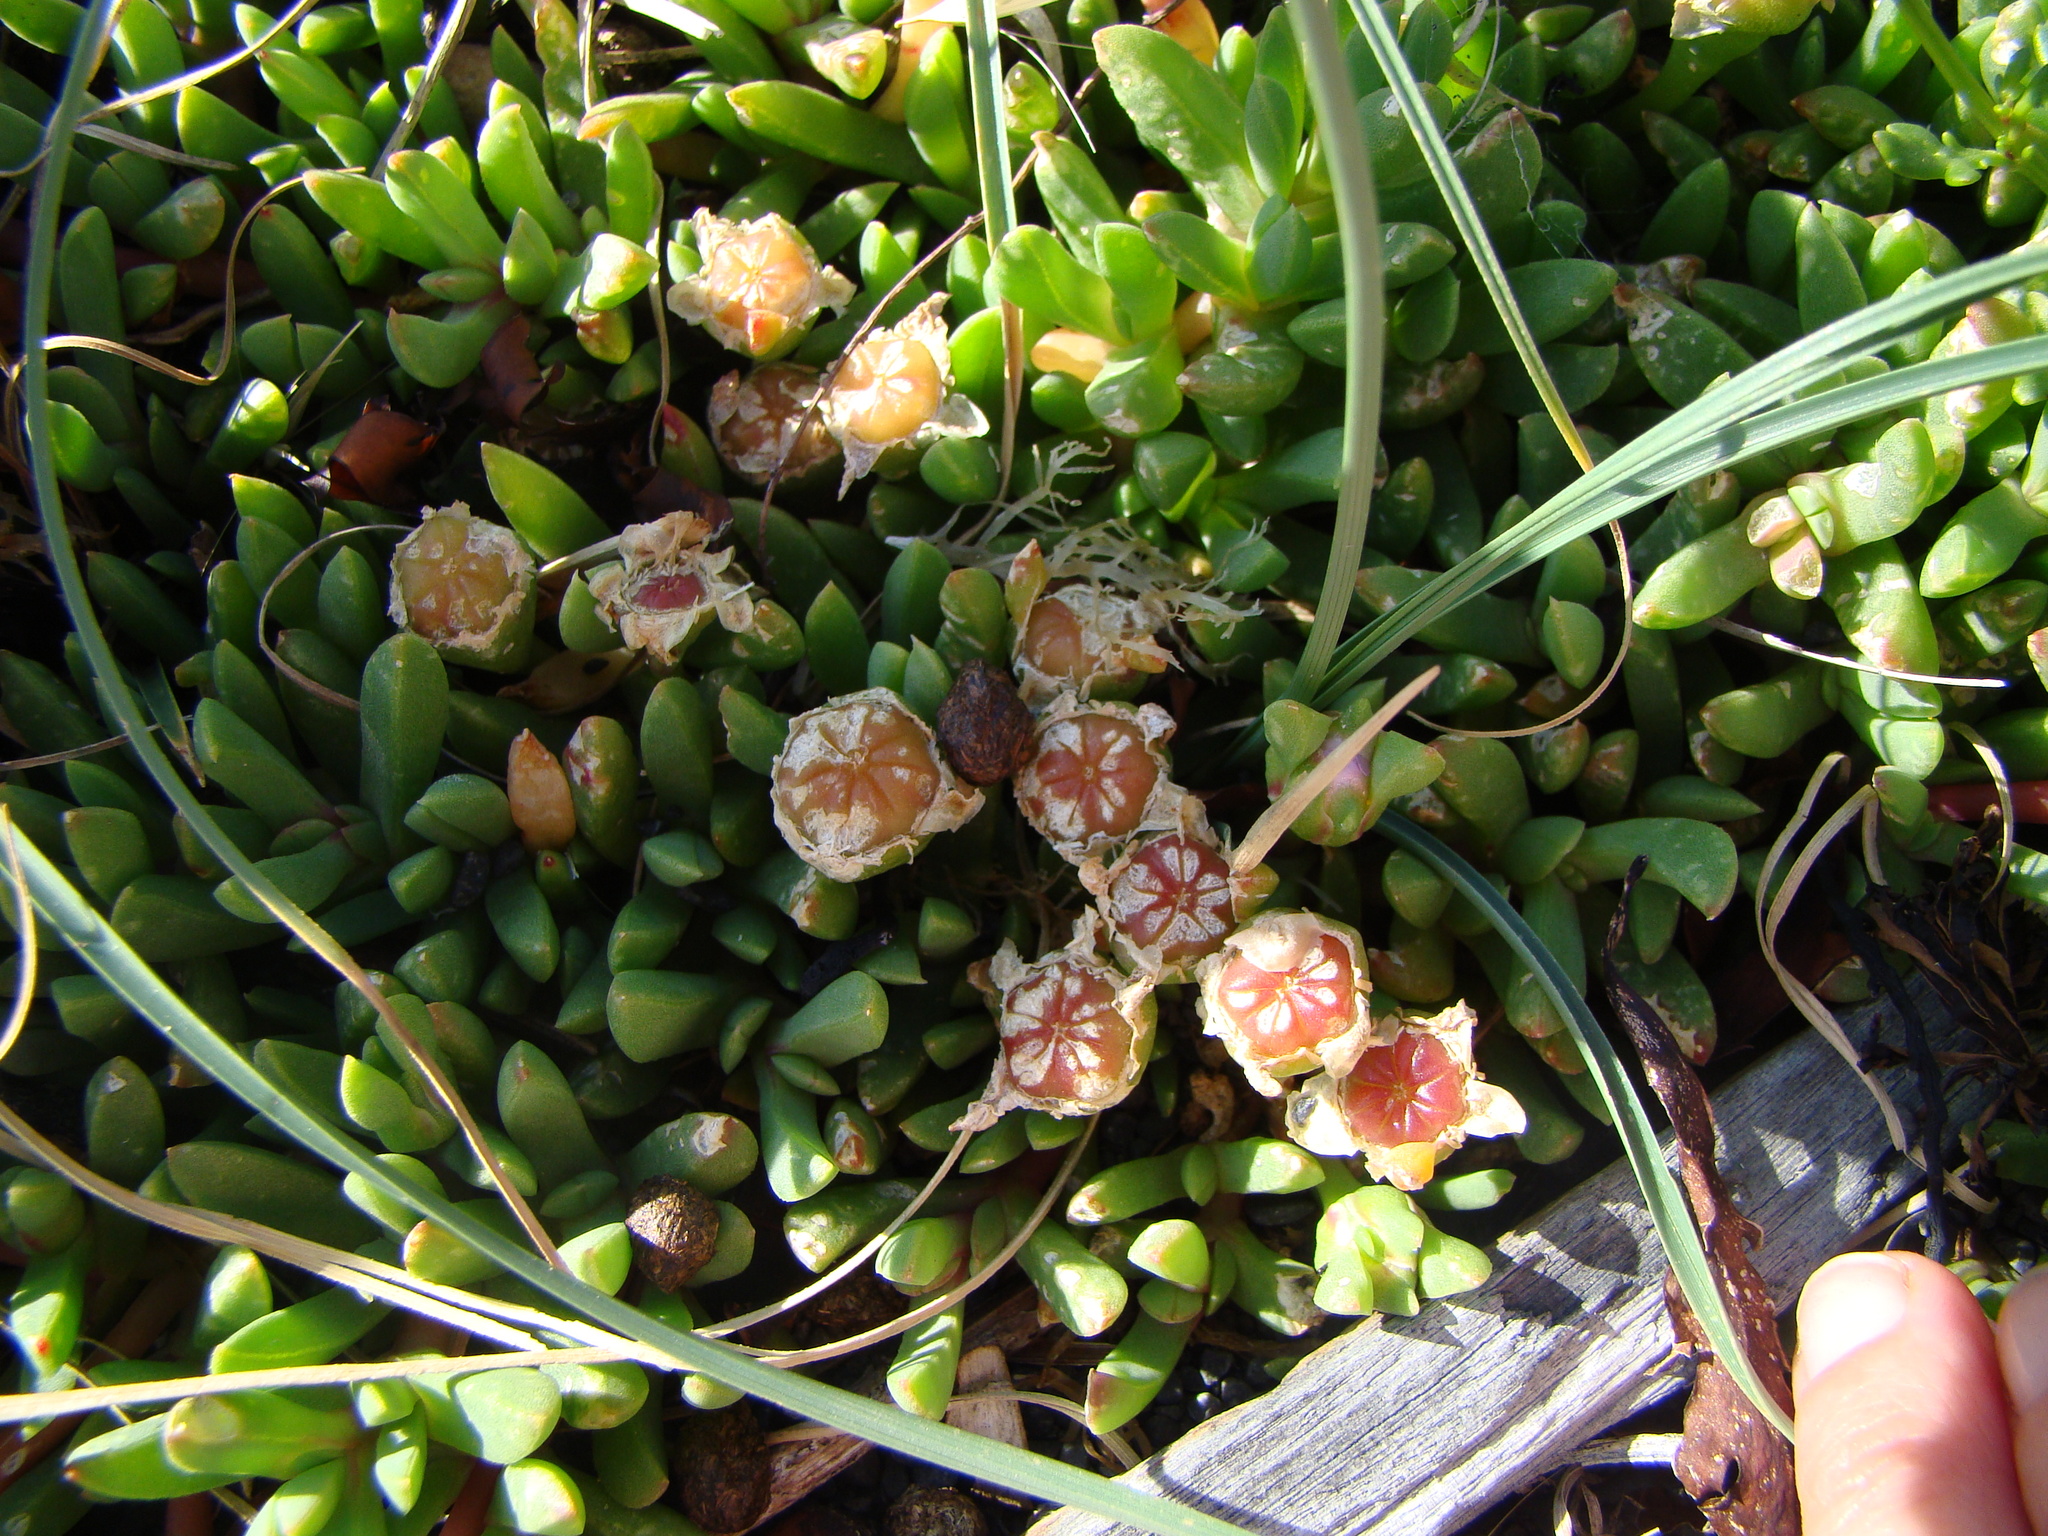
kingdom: Plantae
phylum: Tracheophyta
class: Magnoliopsida
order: Caryophyllales
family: Aizoaceae
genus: Disphyma
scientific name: Disphyma australe
